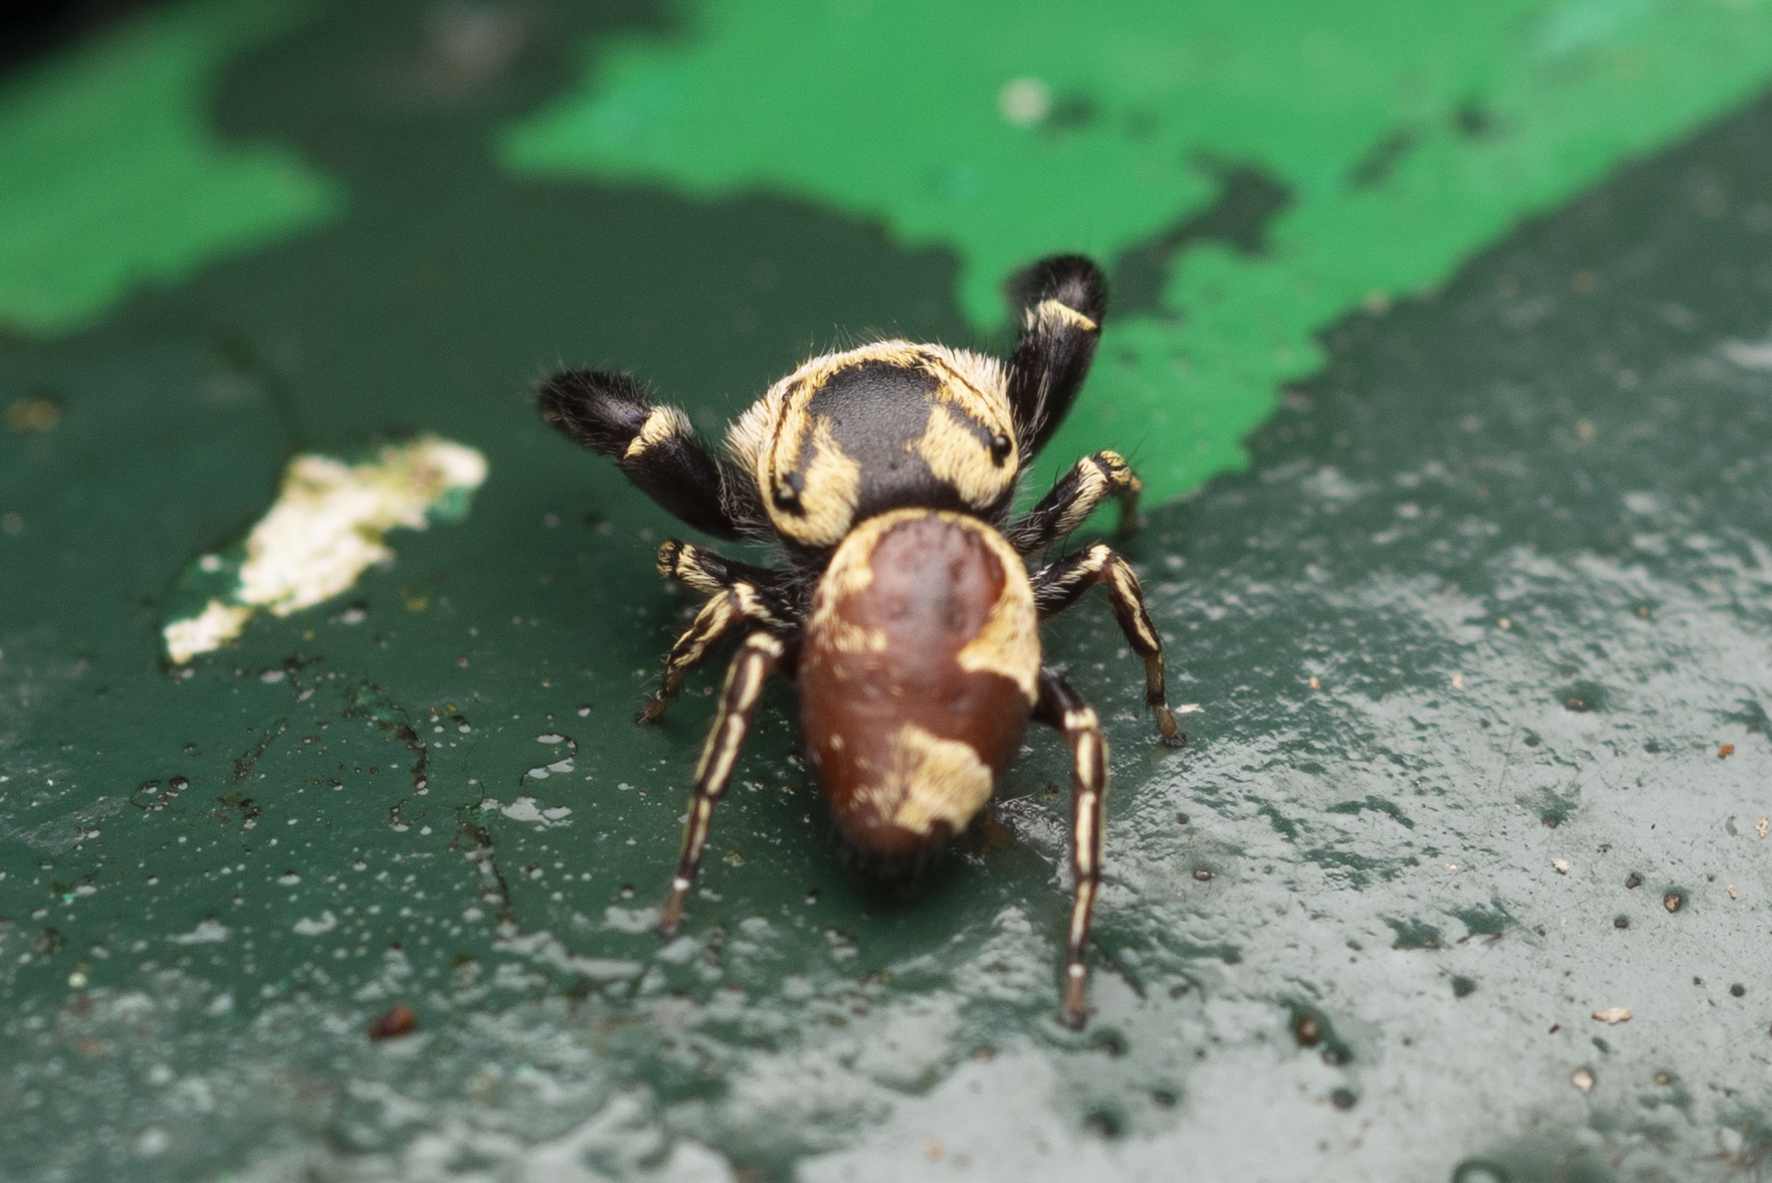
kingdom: Animalia
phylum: Arthropoda
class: Arachnida
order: Araneae
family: Salticidae
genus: Rhene
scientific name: Rhene flavicomans
